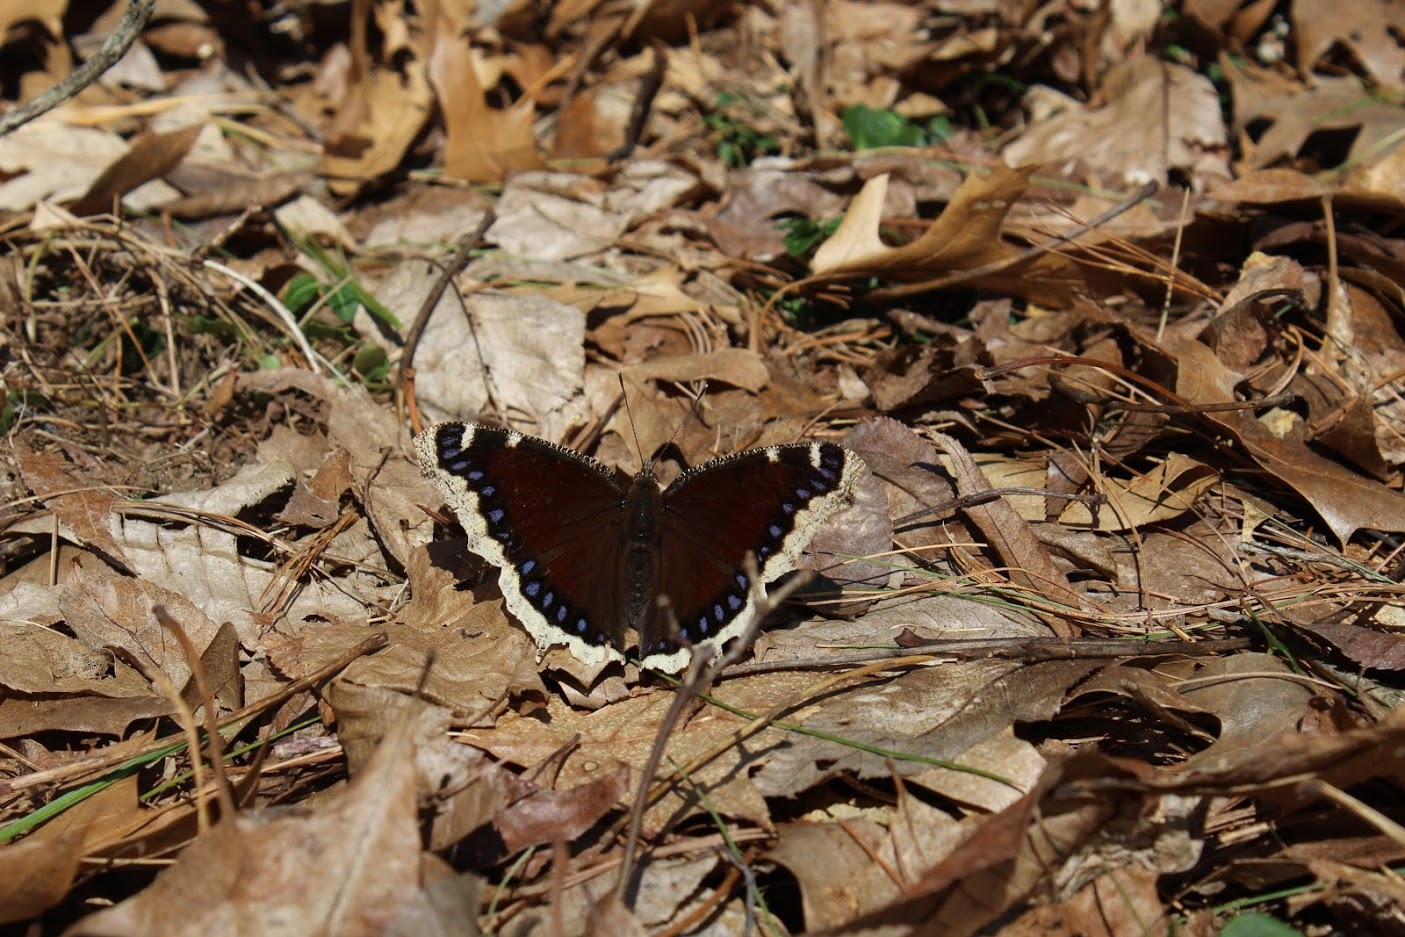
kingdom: Animalia
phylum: Arthropoda
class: Insecta
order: Lepidoptera
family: Nymphalidae
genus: Nymphalis
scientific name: Nymphalis antiopa
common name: Camberwell beauty
